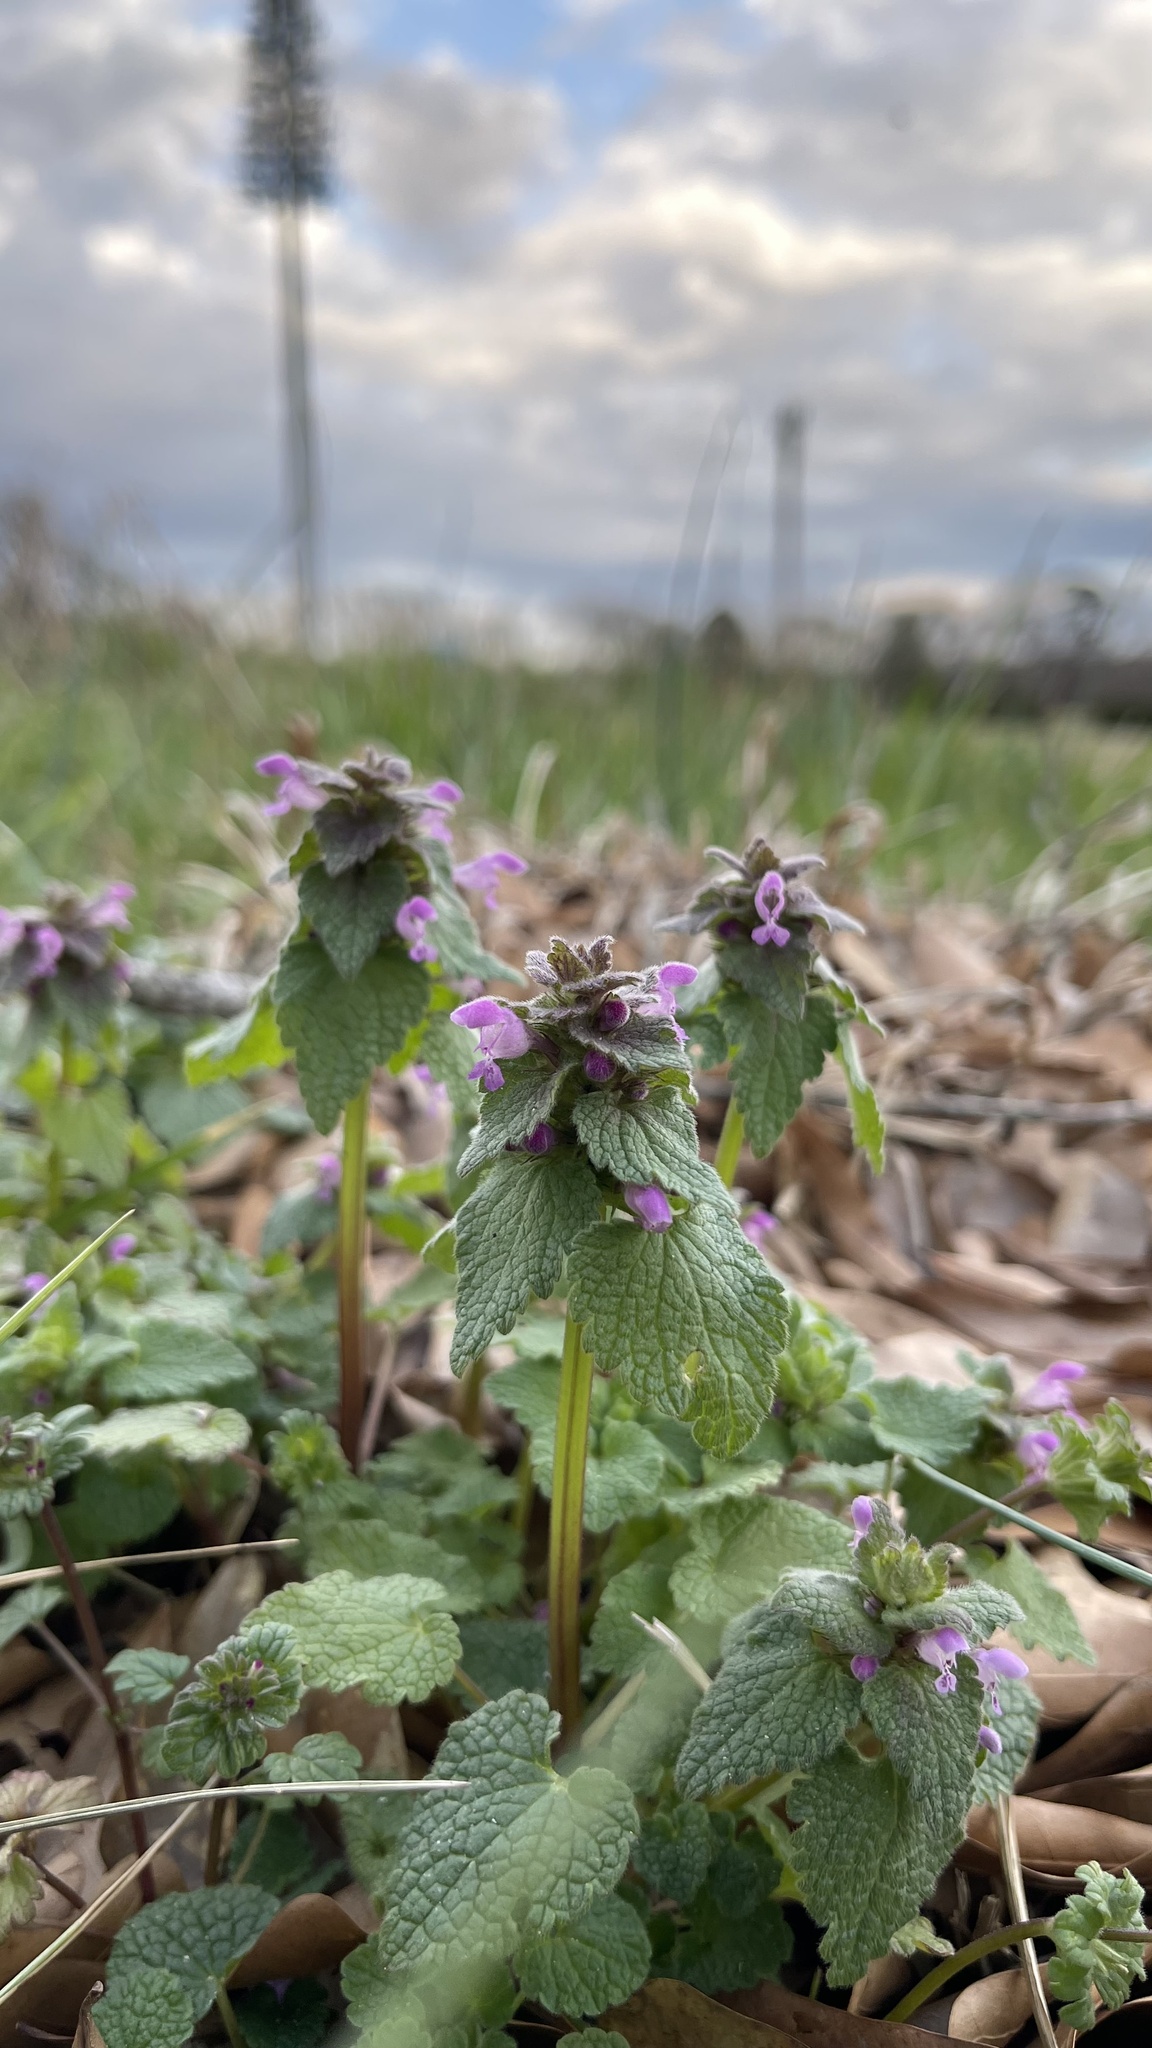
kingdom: Plantae
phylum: Tracheophyta
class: Magnoliopsida
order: Lamiales
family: Lamiaceae
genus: Lamium
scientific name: Lamium purpureum
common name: Red dead-nettle
